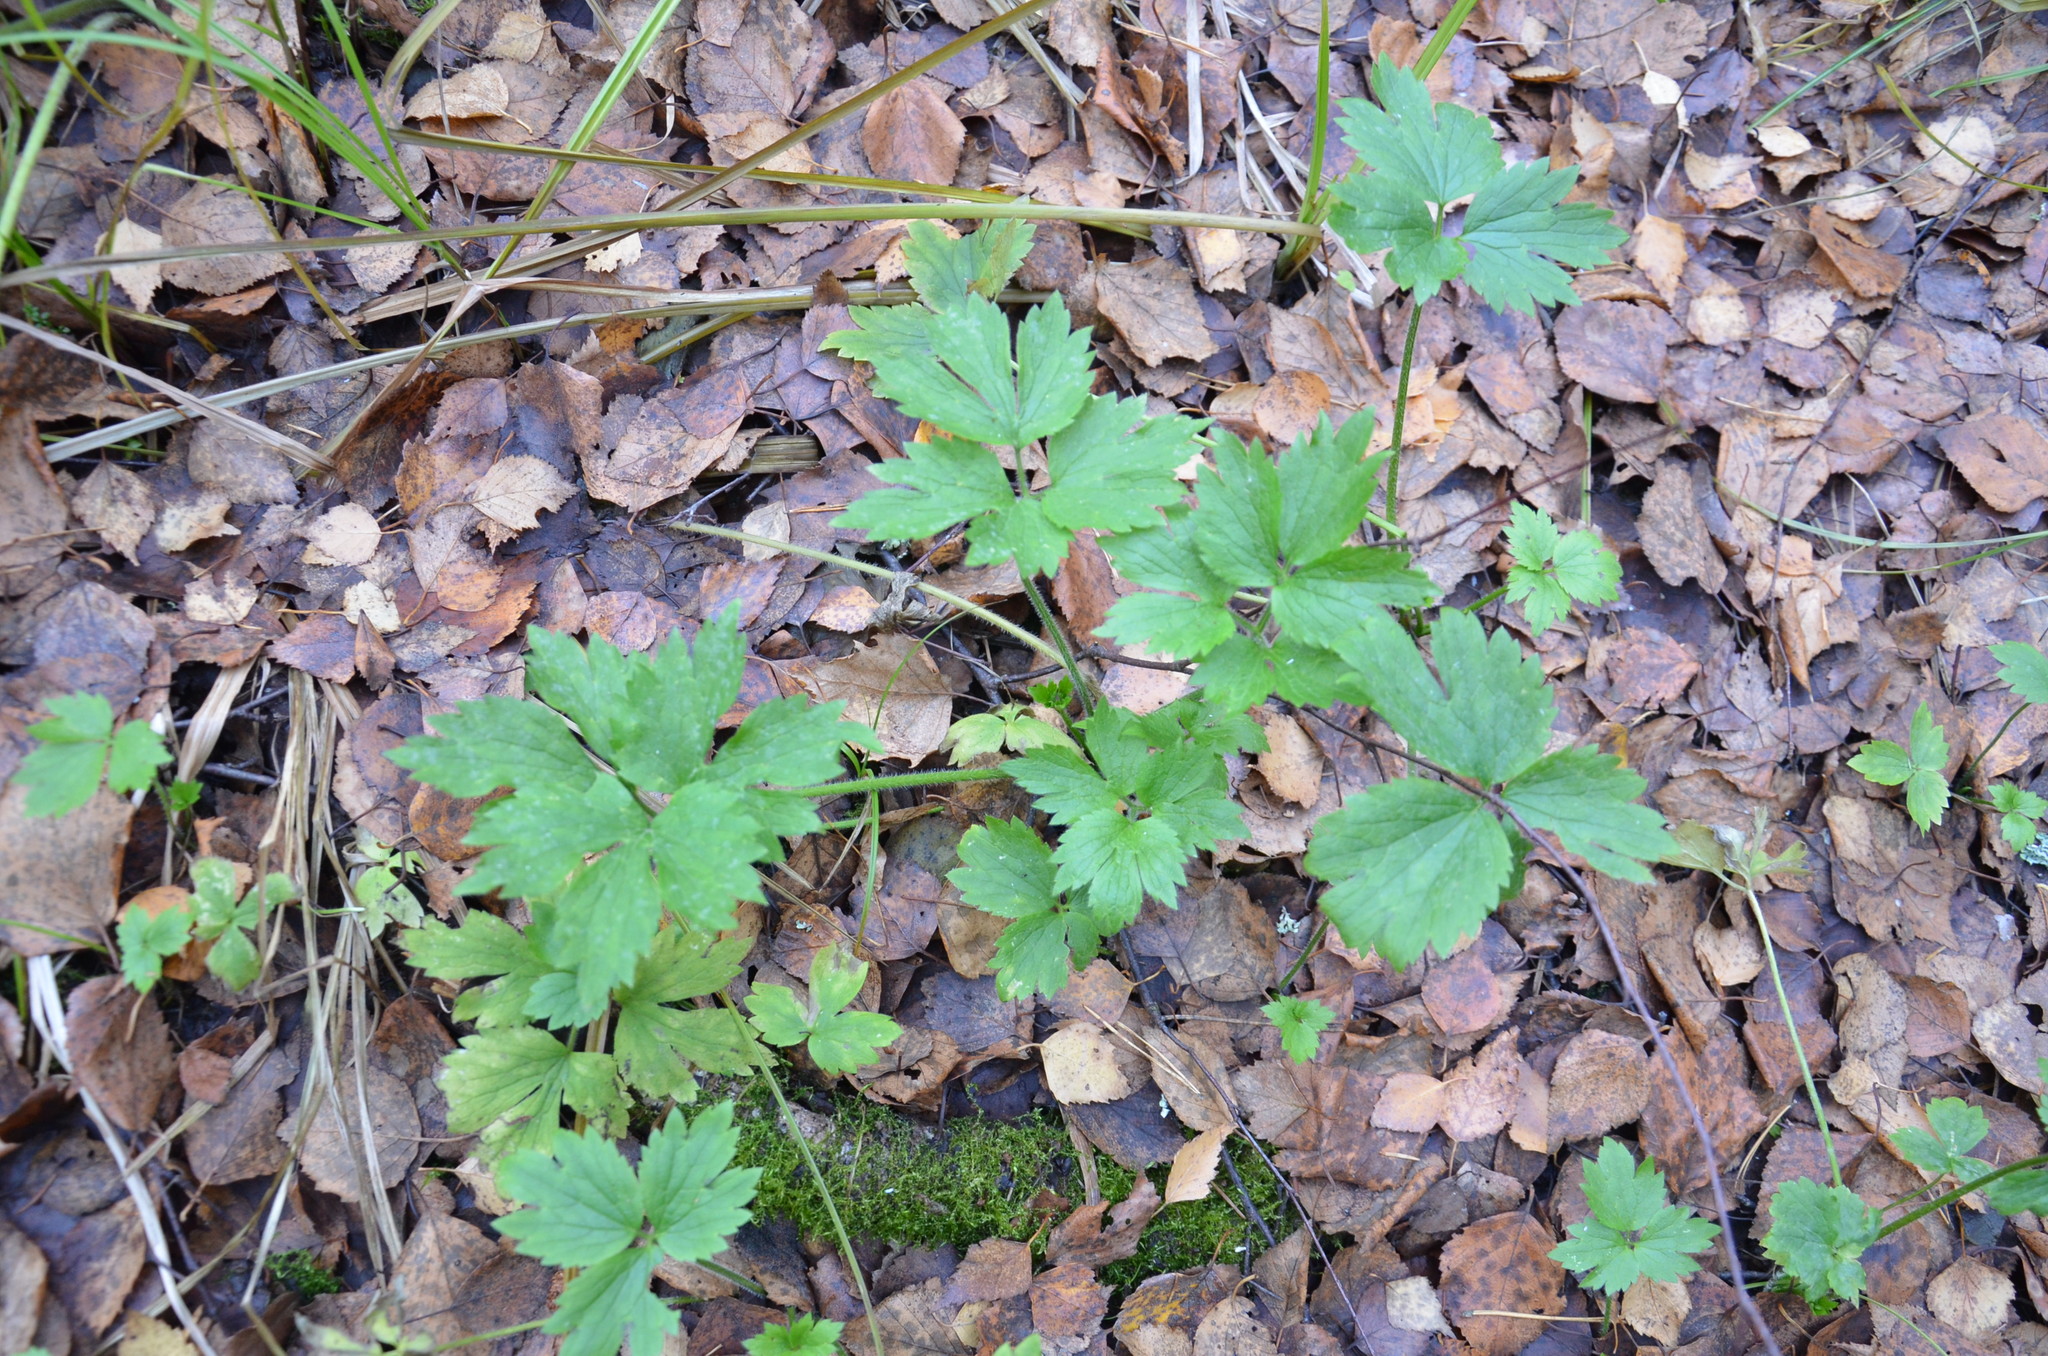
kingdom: Plantae
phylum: Tracheophyta
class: Magnoliopsida
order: Ranunculales
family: Ranunculaceae
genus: Ranunculus
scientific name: Ranunculus repens
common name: Creeping buttercup
